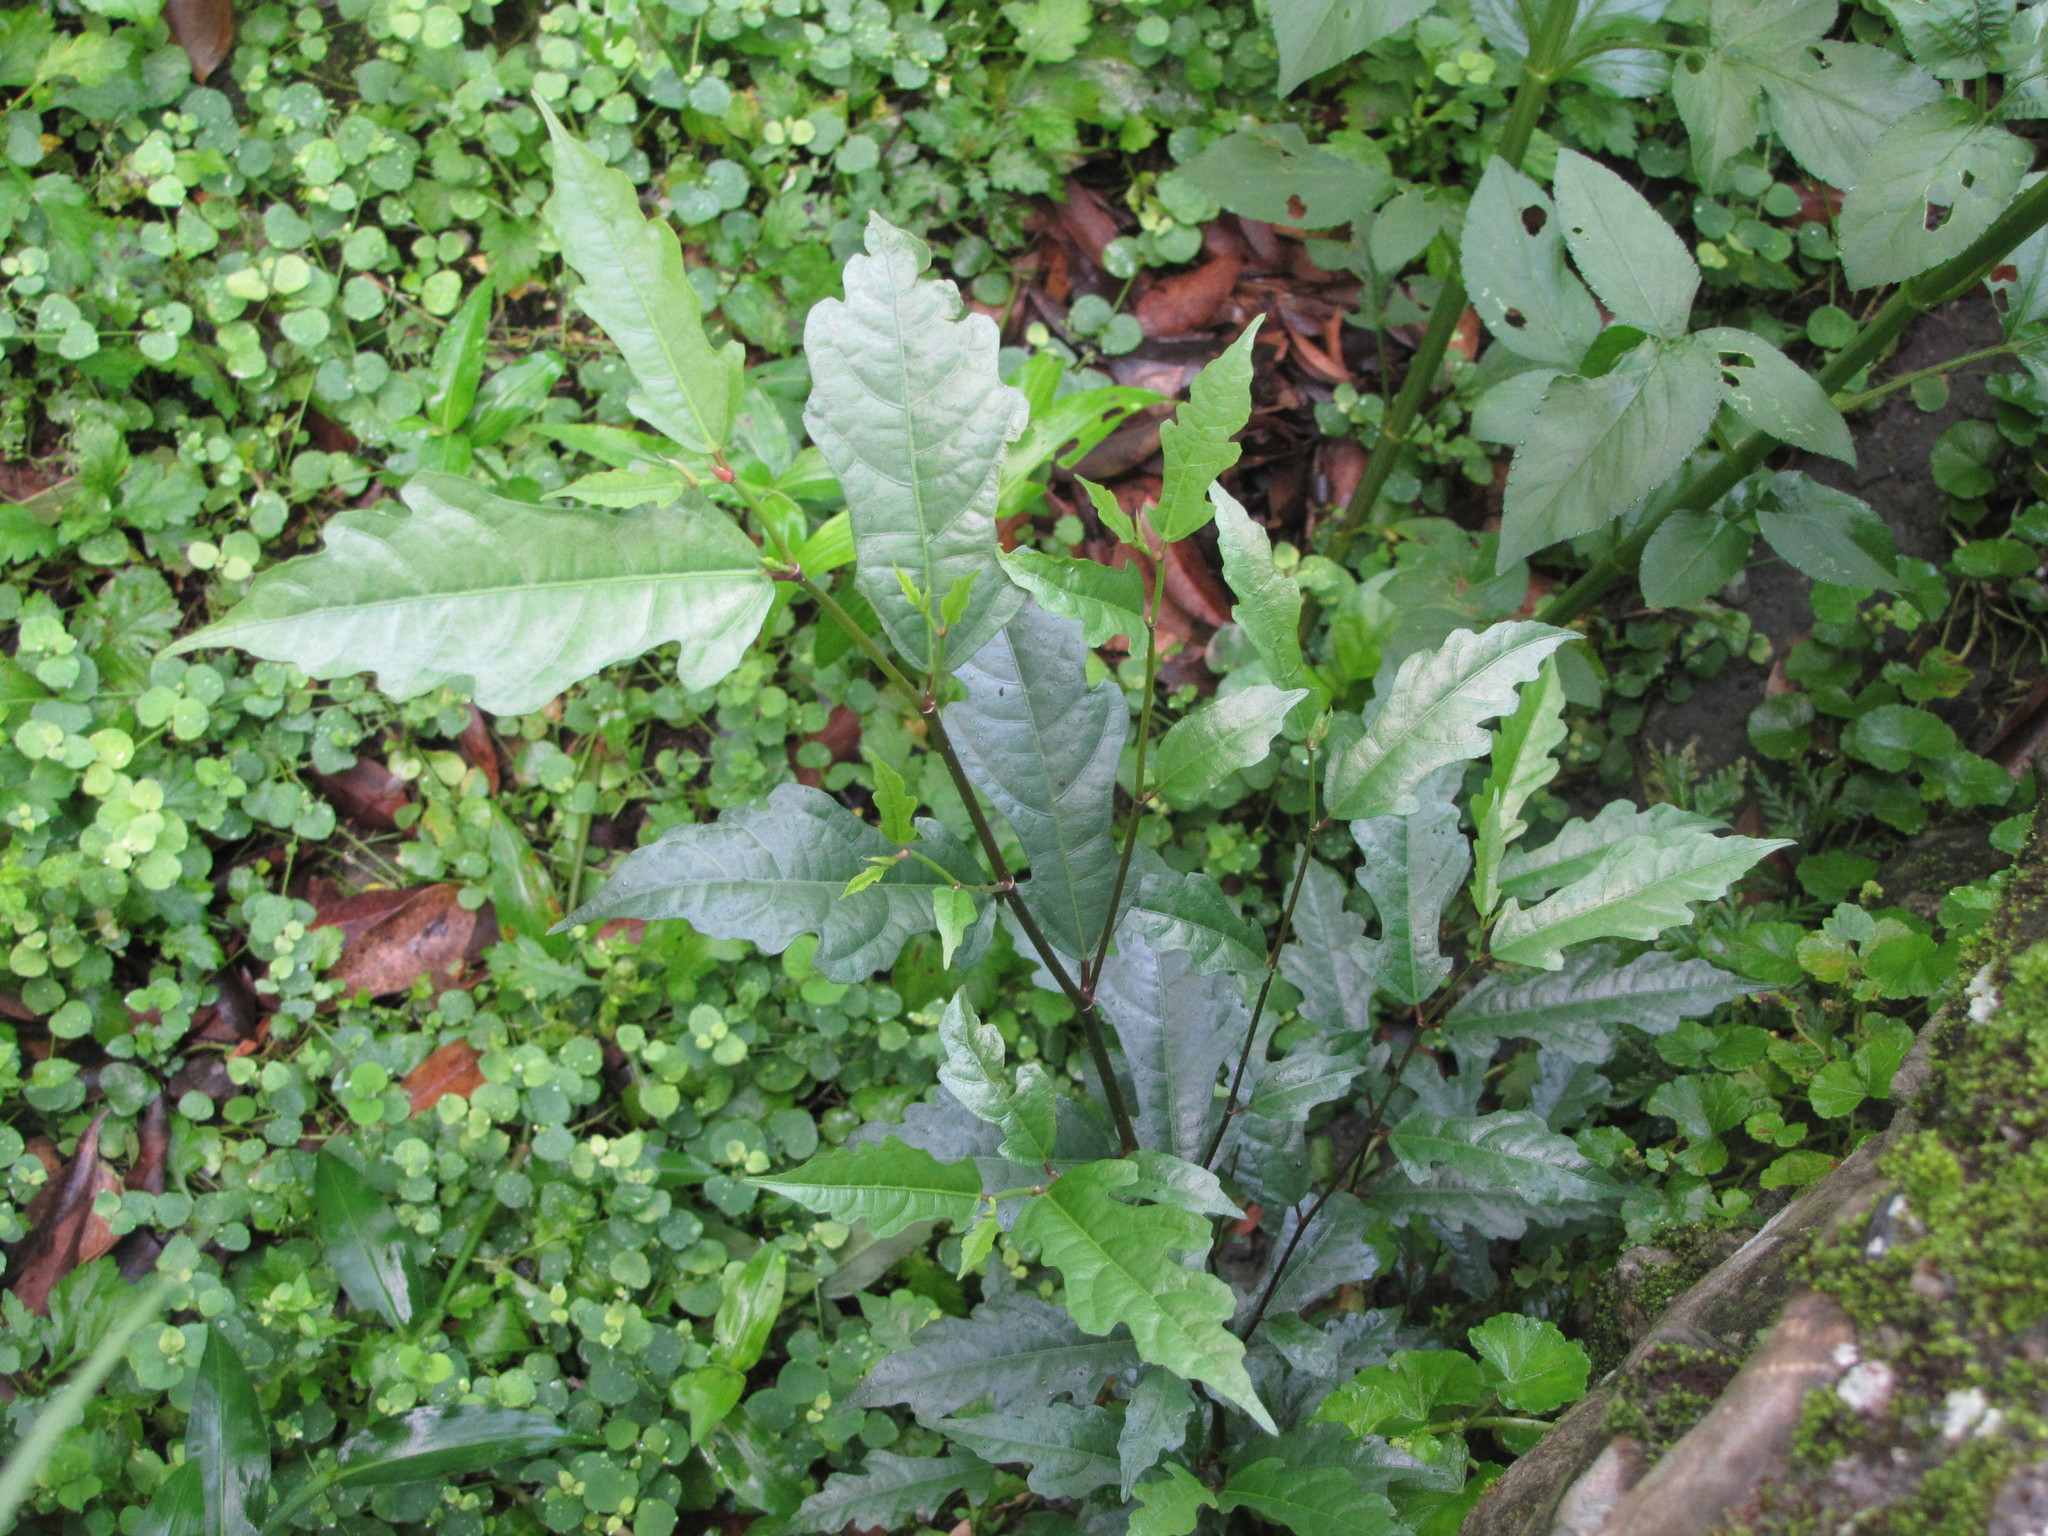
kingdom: Plantae
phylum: Tracheophyta
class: Magnoliopsida
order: Rosales
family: Moraceae
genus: Ficus
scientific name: Ficus ampelos
